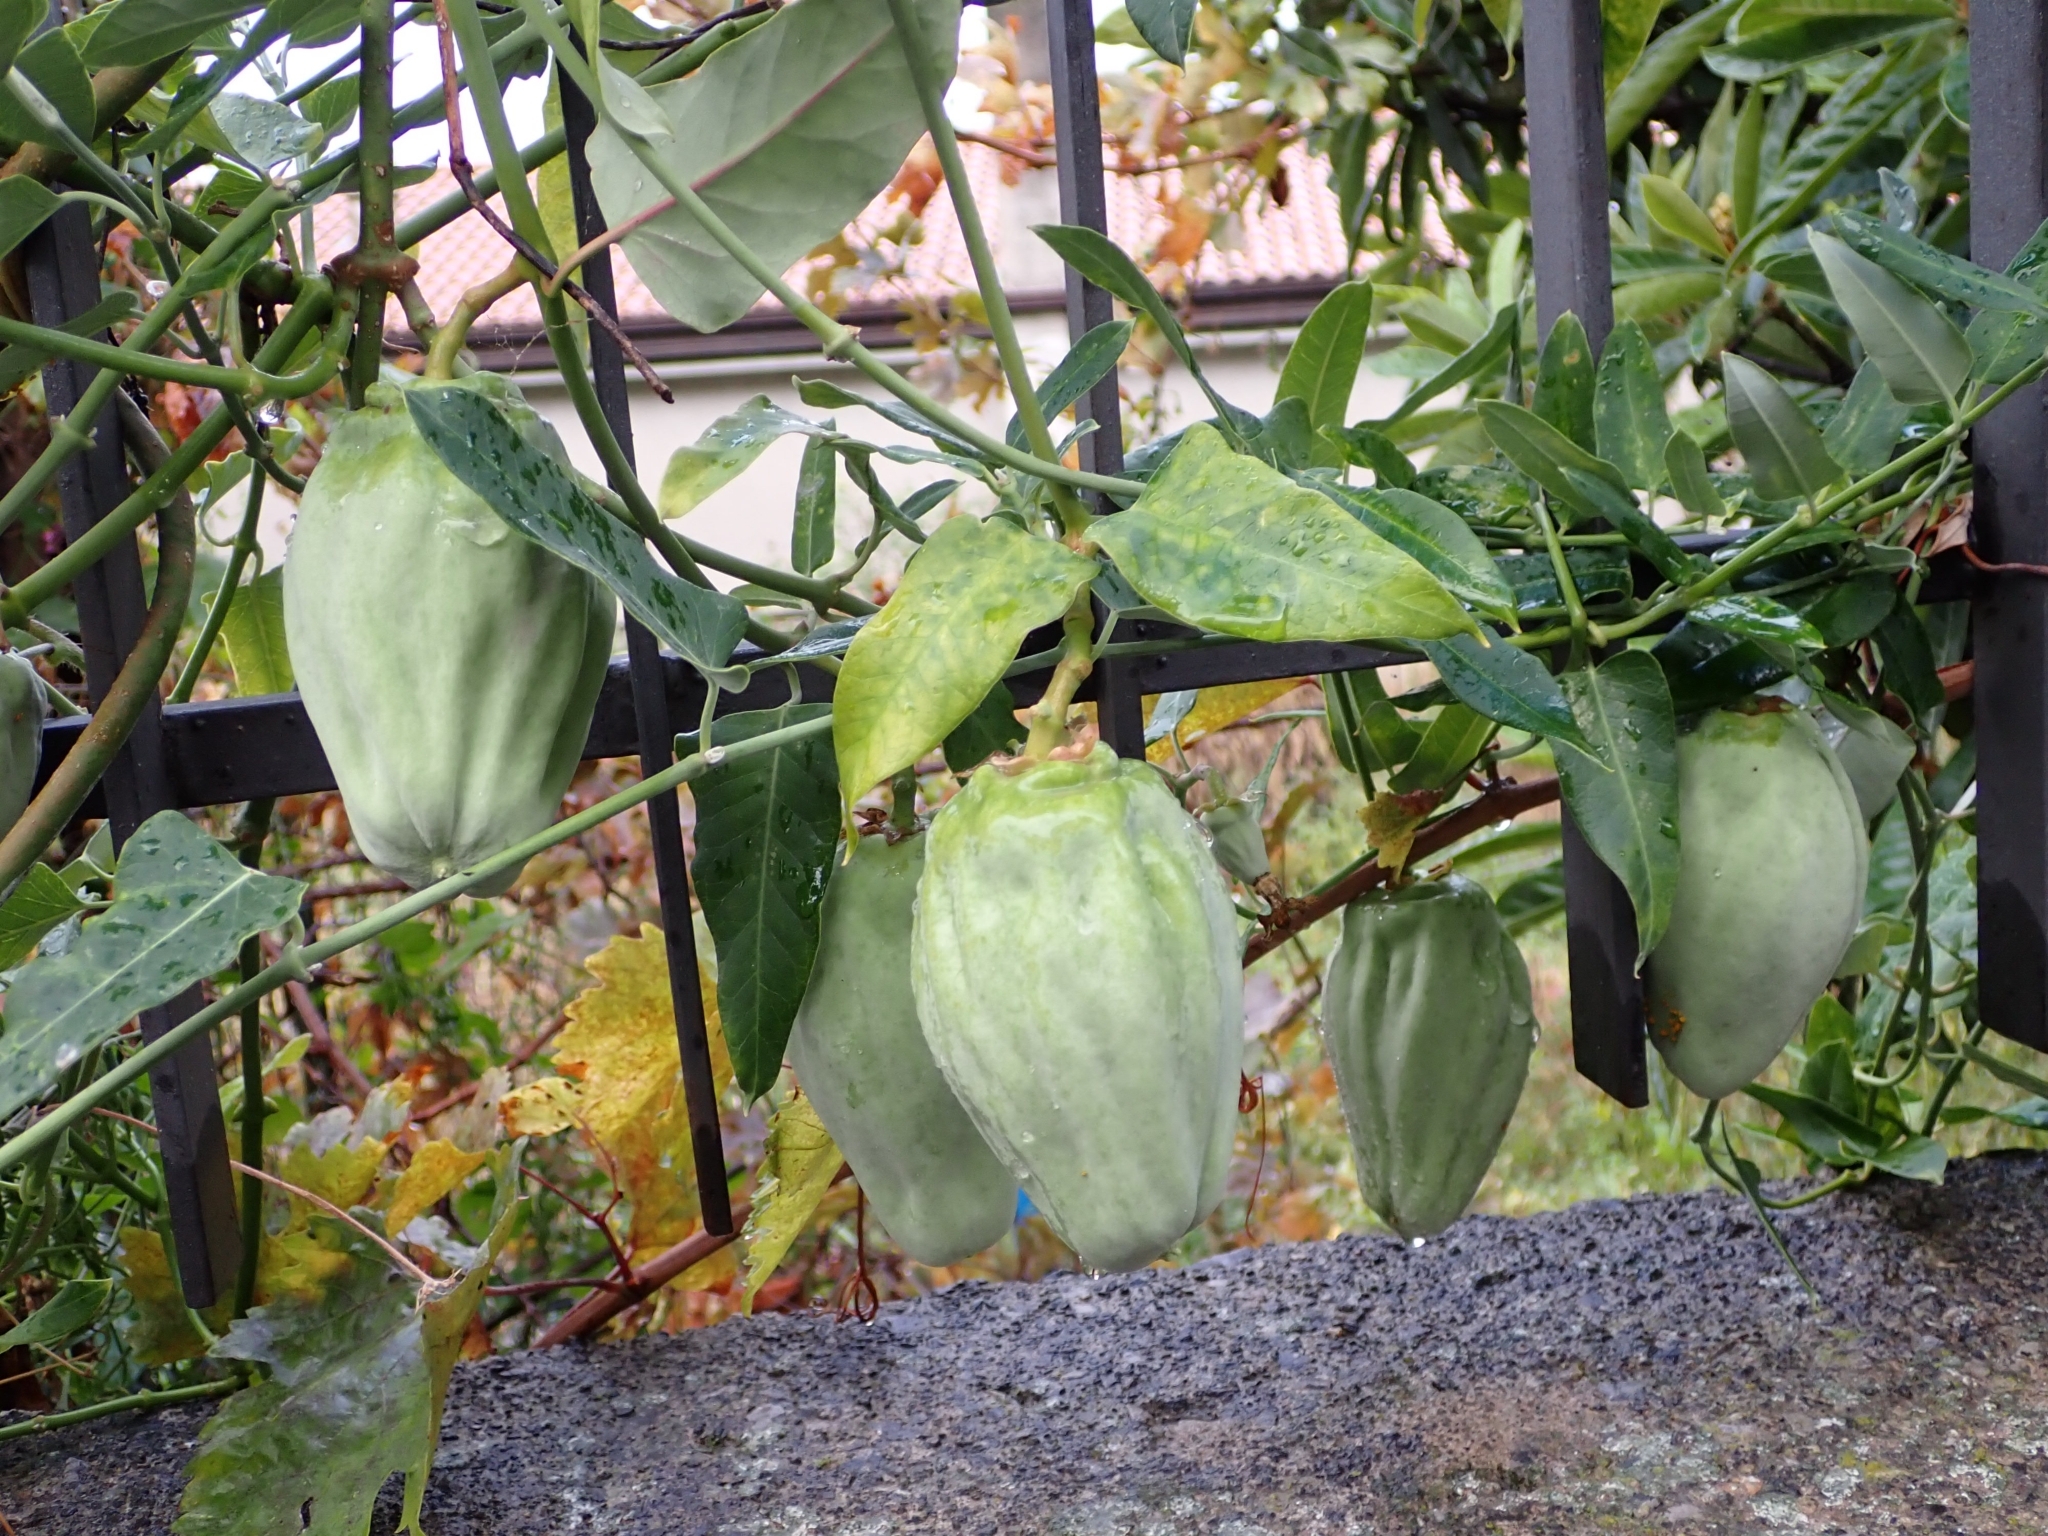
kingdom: Plantae
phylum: Tracheophyta
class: Magnoliopsida
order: Gentianales
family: Apocynaceae
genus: Araujia
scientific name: Araujia sericifera
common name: White bladderflower
